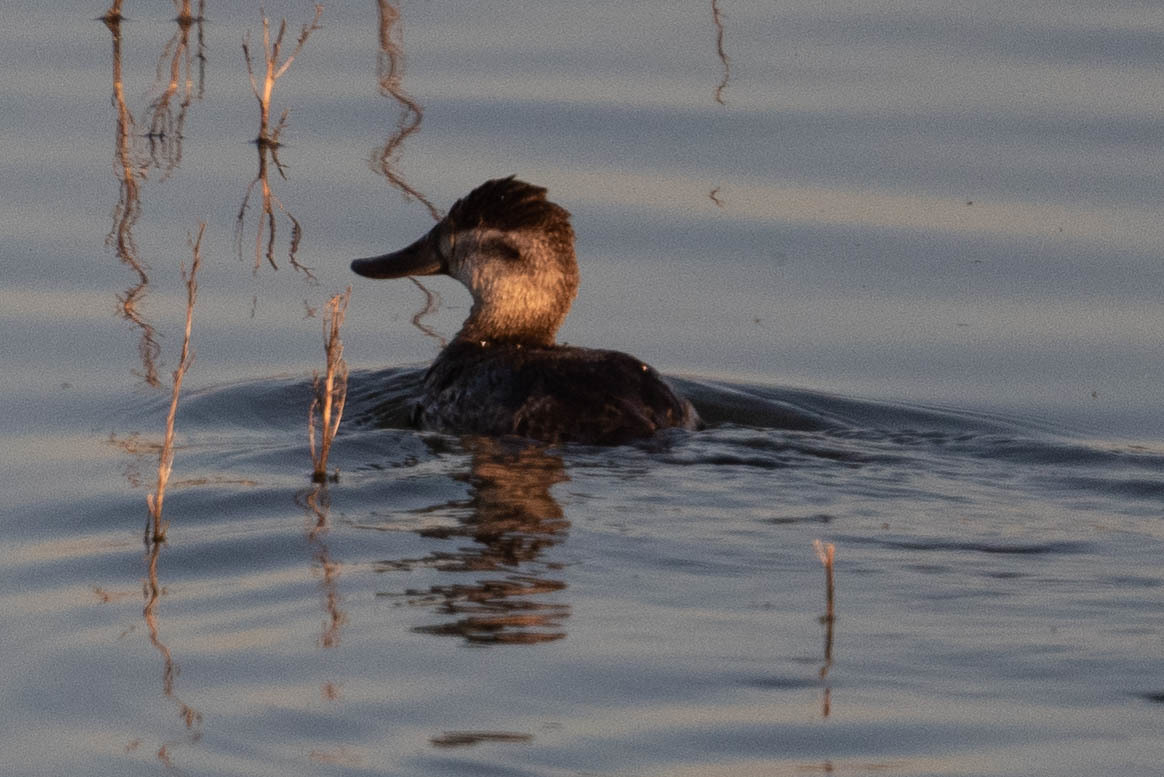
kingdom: Animalia
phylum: Chordata
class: Aves
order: Anseriformes
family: Anatidae
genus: Oxyura
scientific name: Oxyura jamaicensis
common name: Ruddy duck
